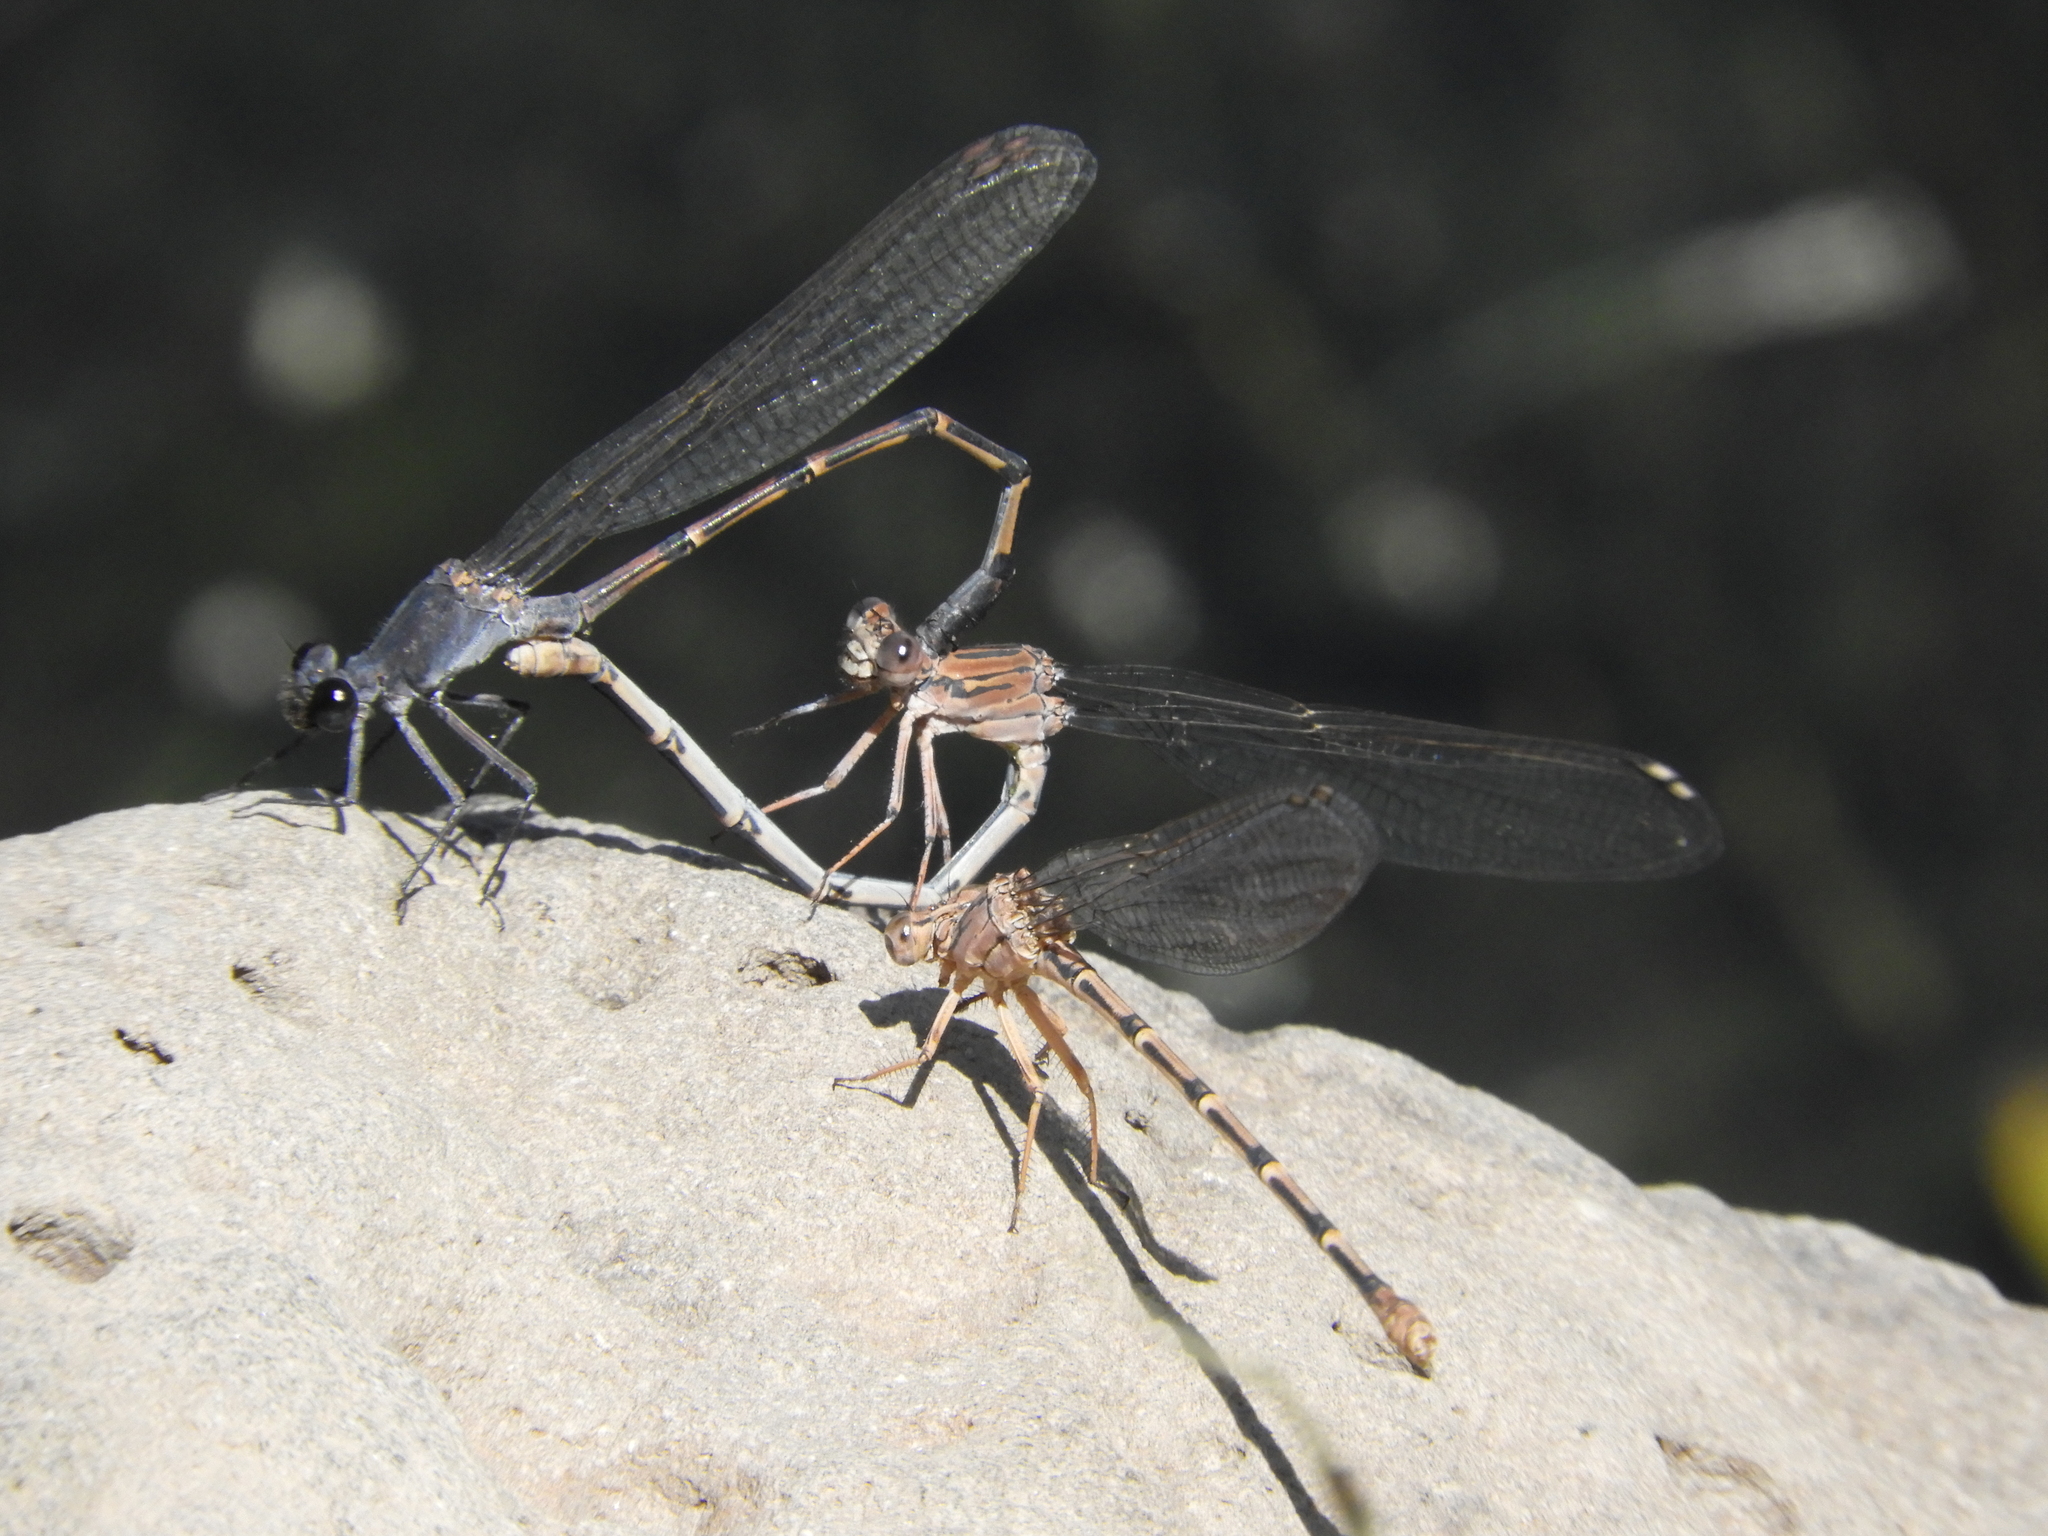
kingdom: Animalia
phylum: Arthropoda
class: Insecta
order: Odonata
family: Coenagrionidae
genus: Argia
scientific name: Argia lugens
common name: Sooty dancer
